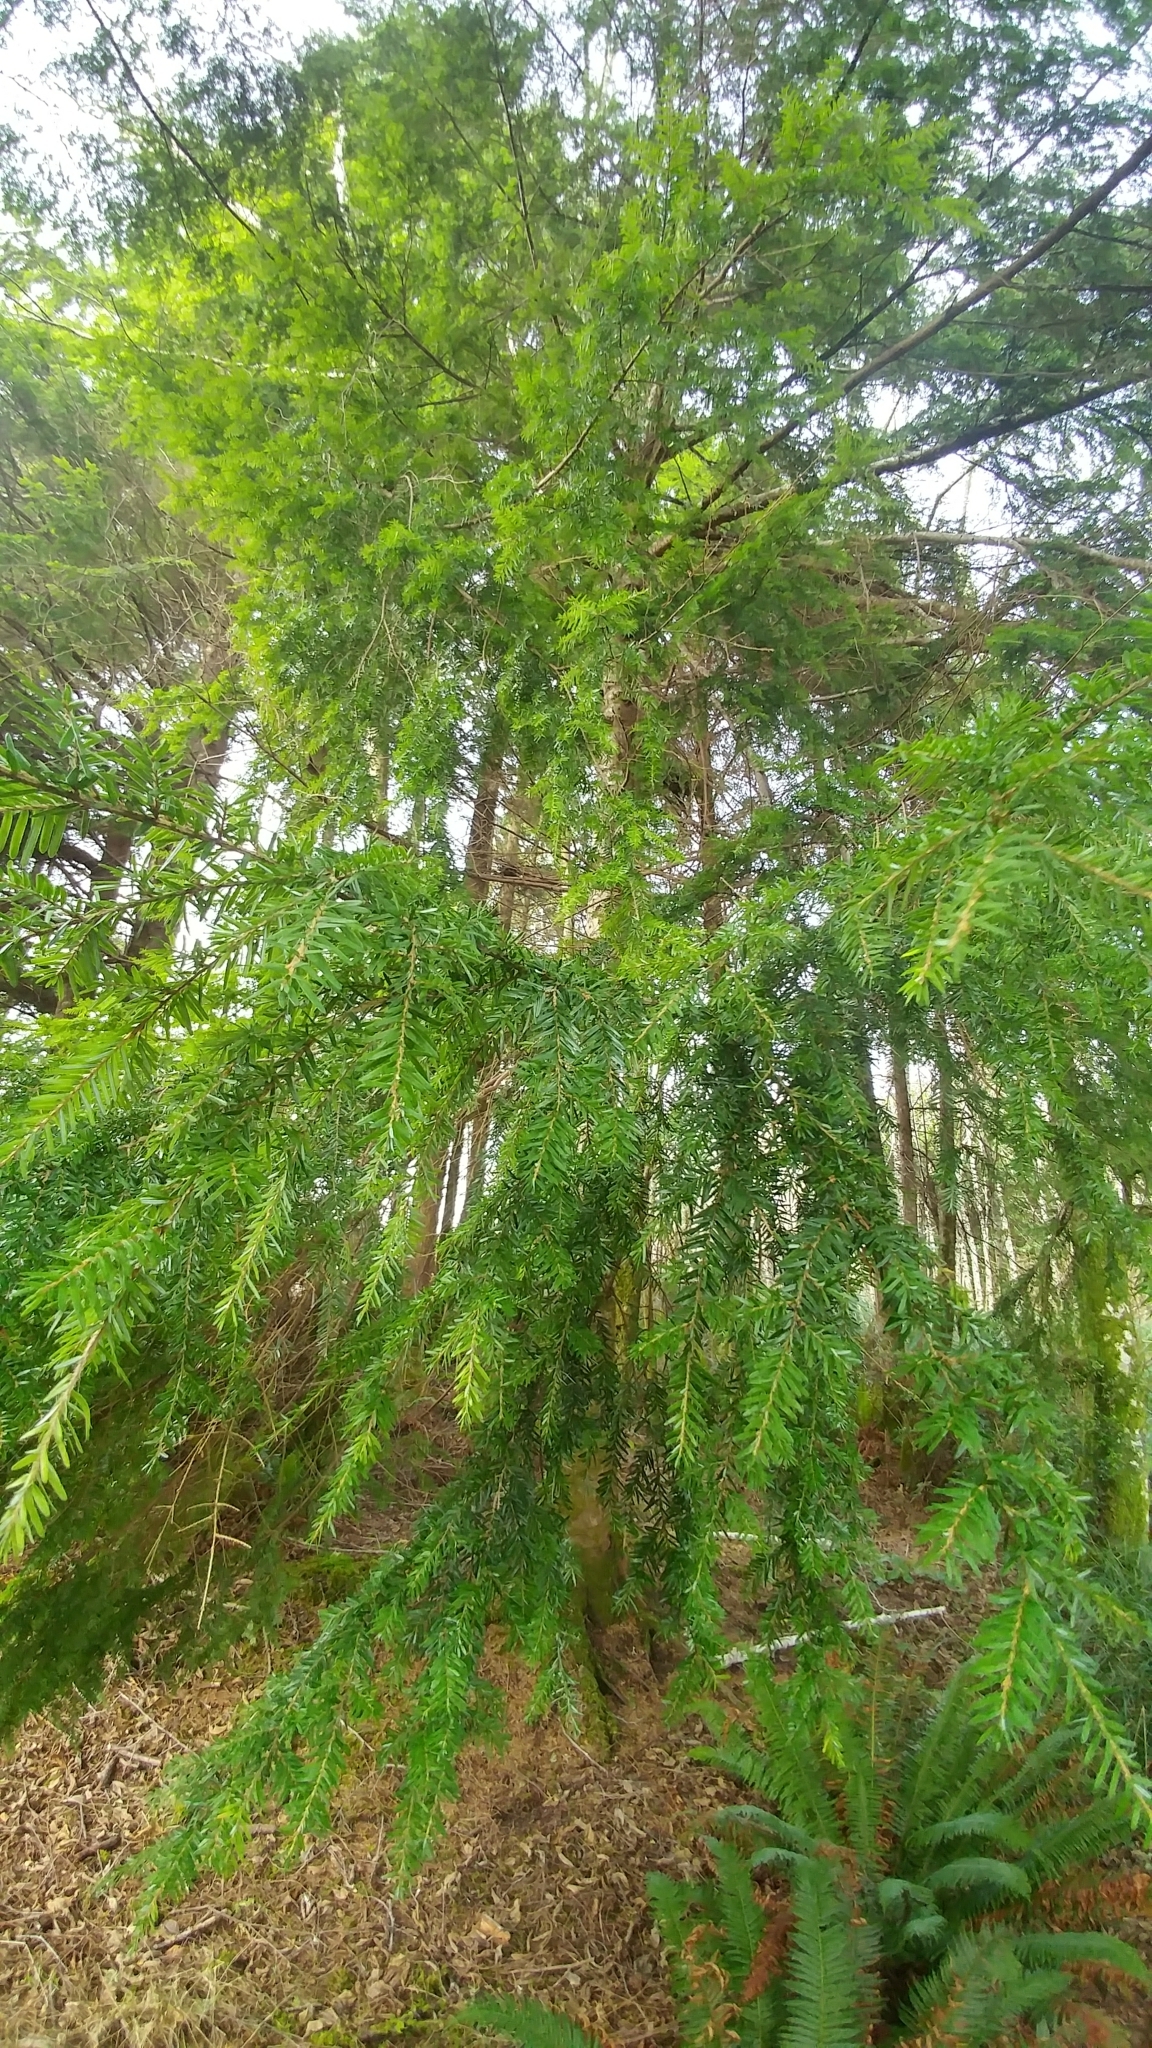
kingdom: Plantae
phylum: Tracheophyta
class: Pinopsida
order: Pinales
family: Pinaceae
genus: Tsuga
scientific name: Tsuga heterophylla
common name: Western hemlock
